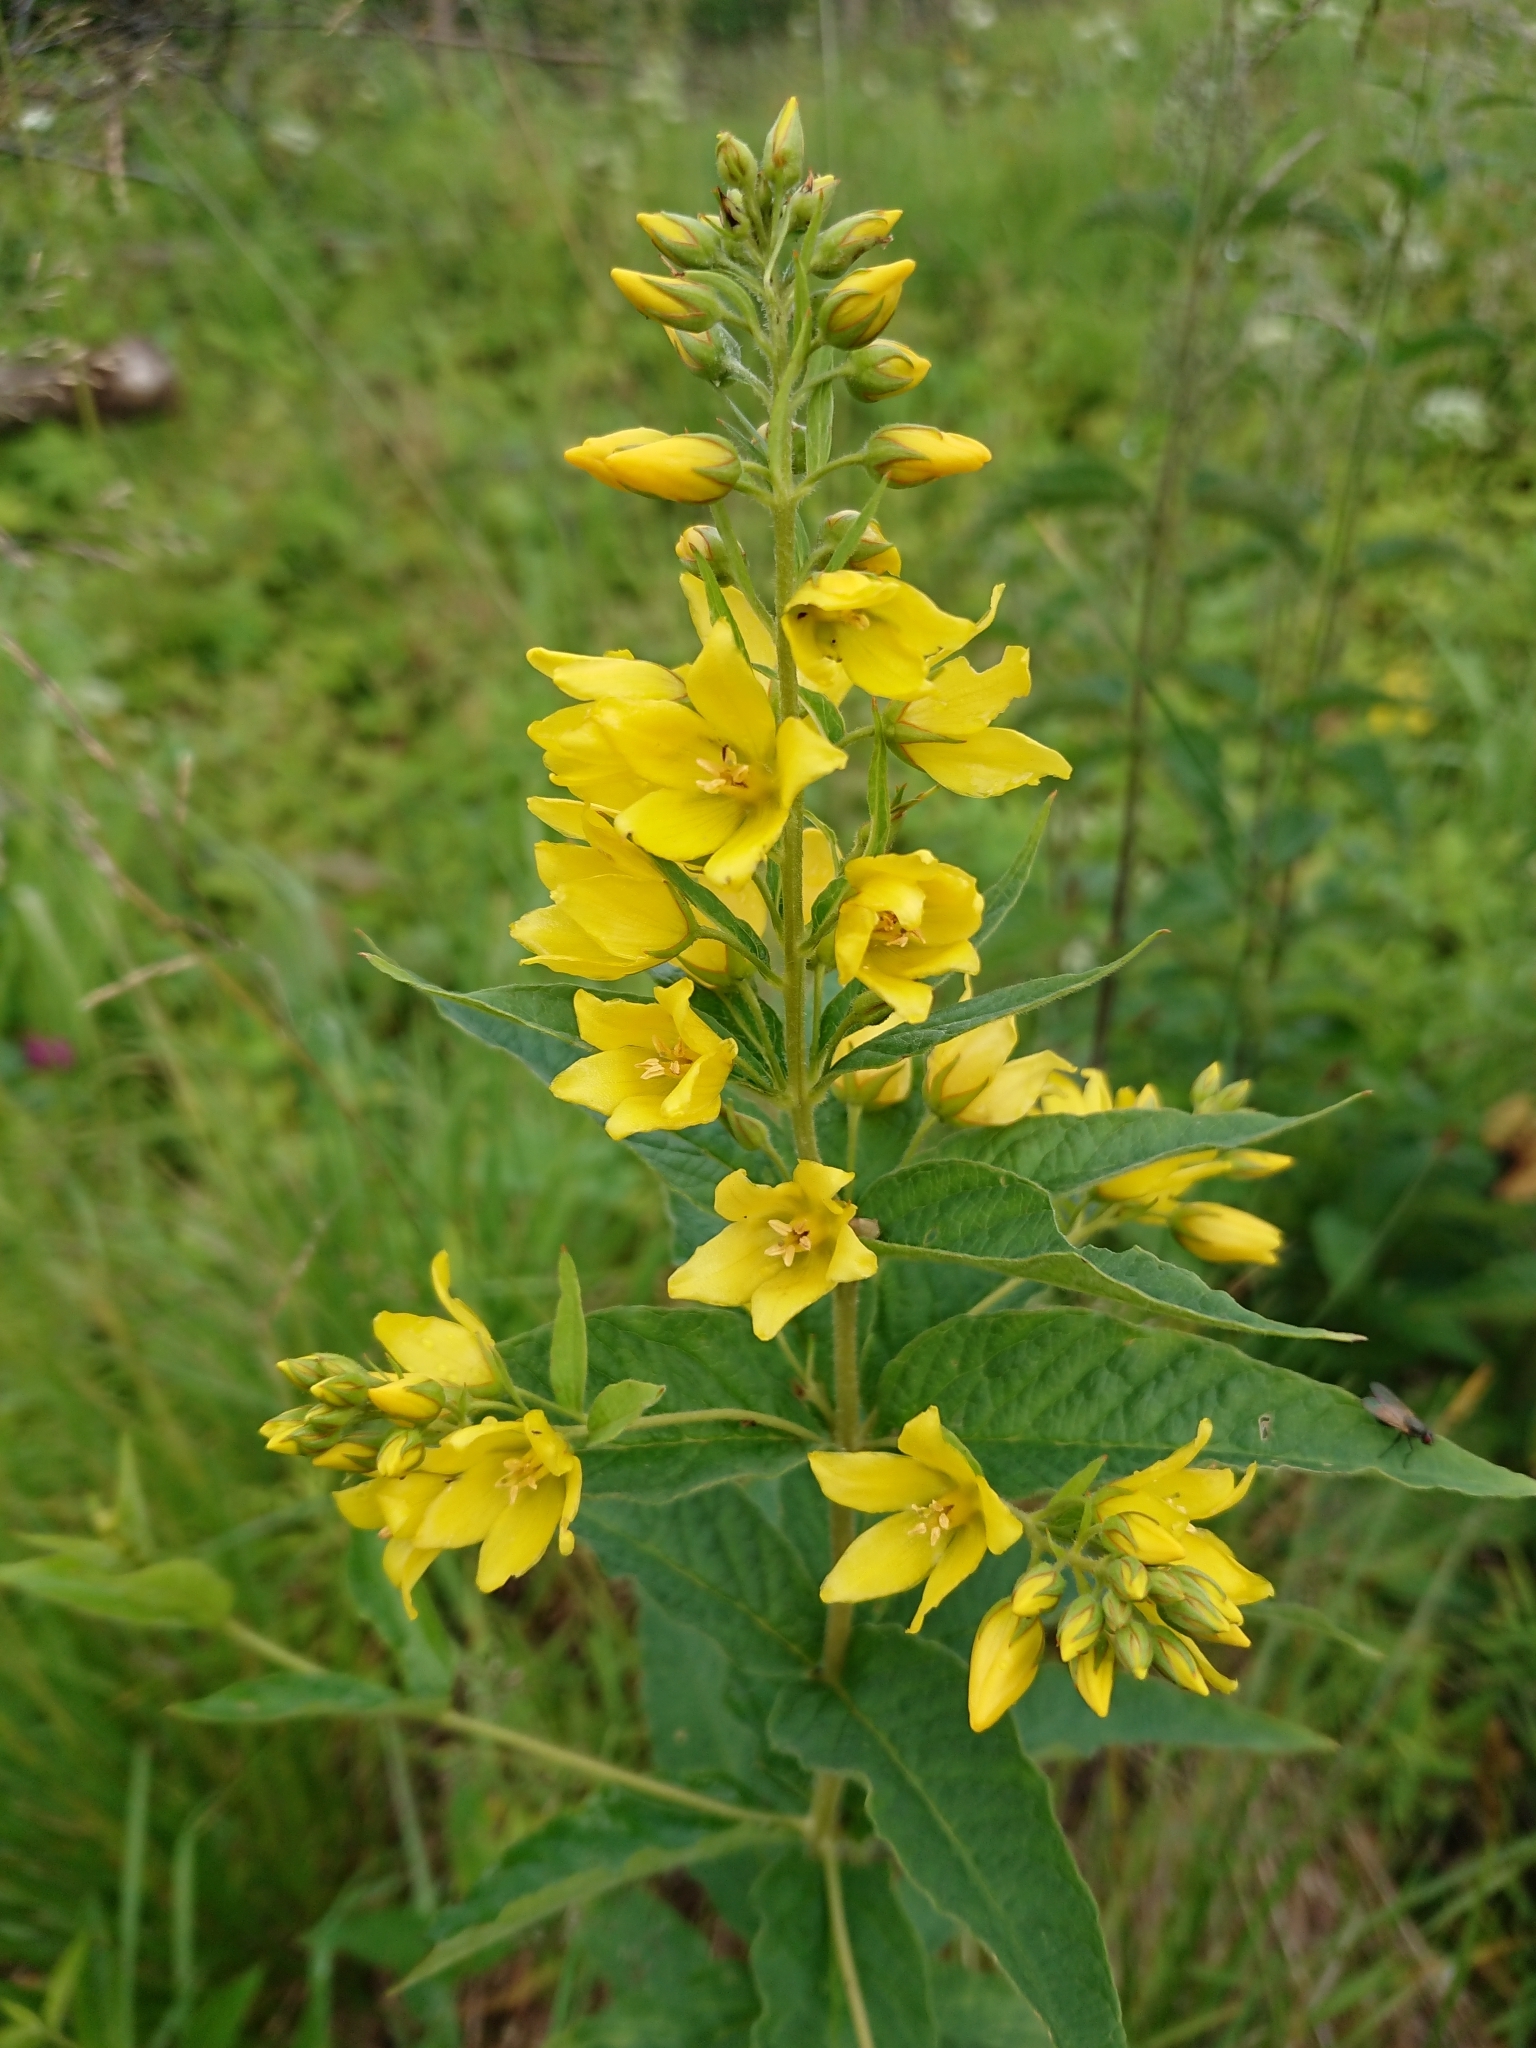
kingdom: Plantae
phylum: Tracheophyta
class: Magnoliopsida
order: Ericales
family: Primulaceae
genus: Lysimachia
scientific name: Lysimachia vulgaris
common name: Yellow loosestrife
